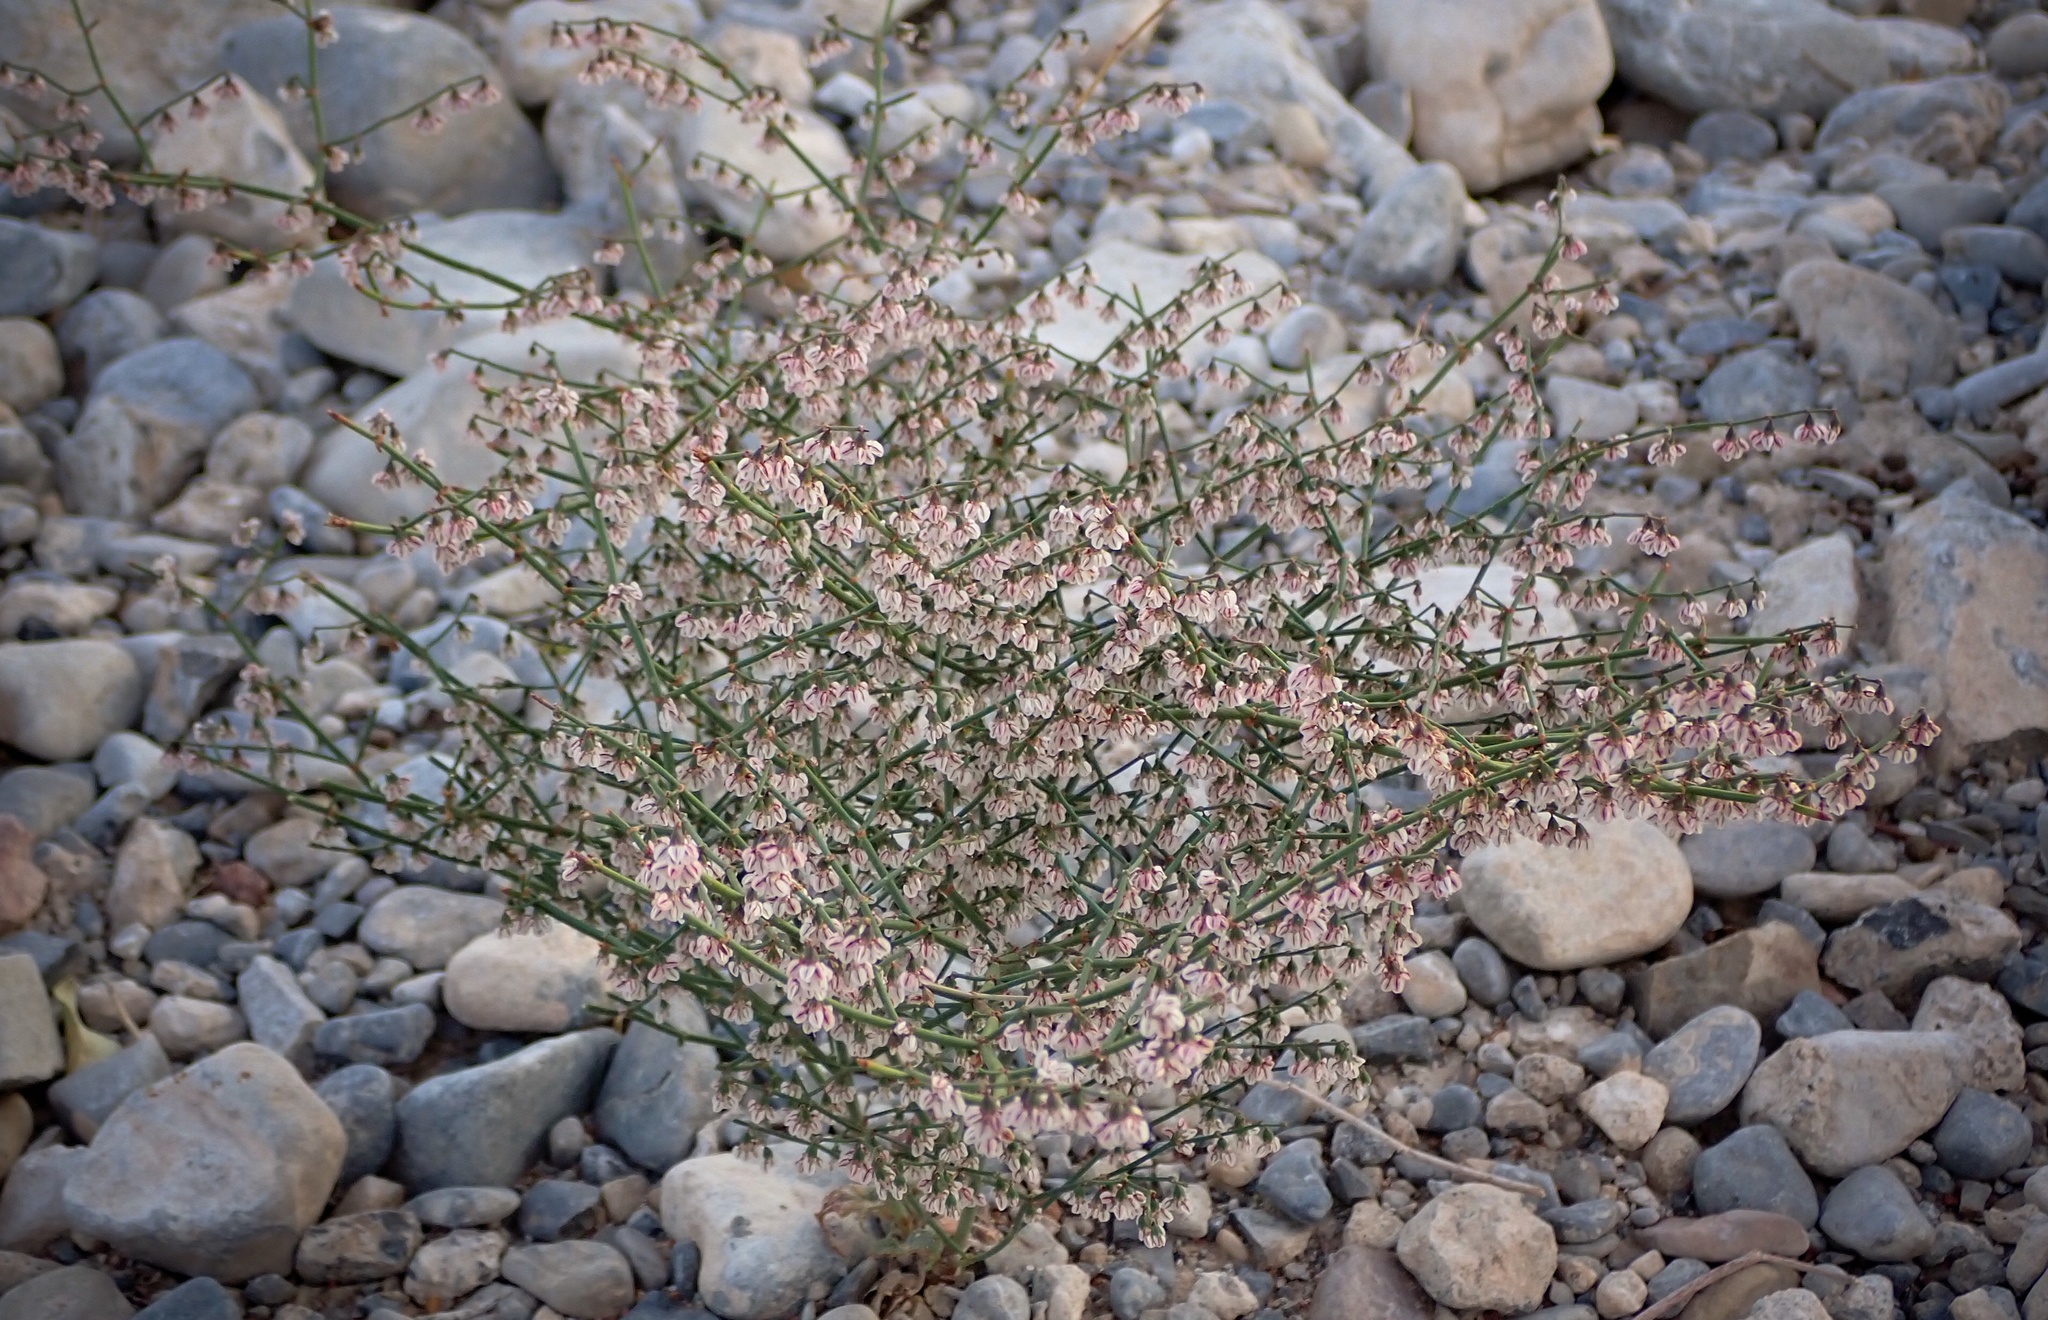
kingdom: Plantae
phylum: Tracheophyta
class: Magnoliopsida
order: Caryophyllales
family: Polygonaceae
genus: Eriogonum
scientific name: Eriogonum deflexum
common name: Skeleton-weed
